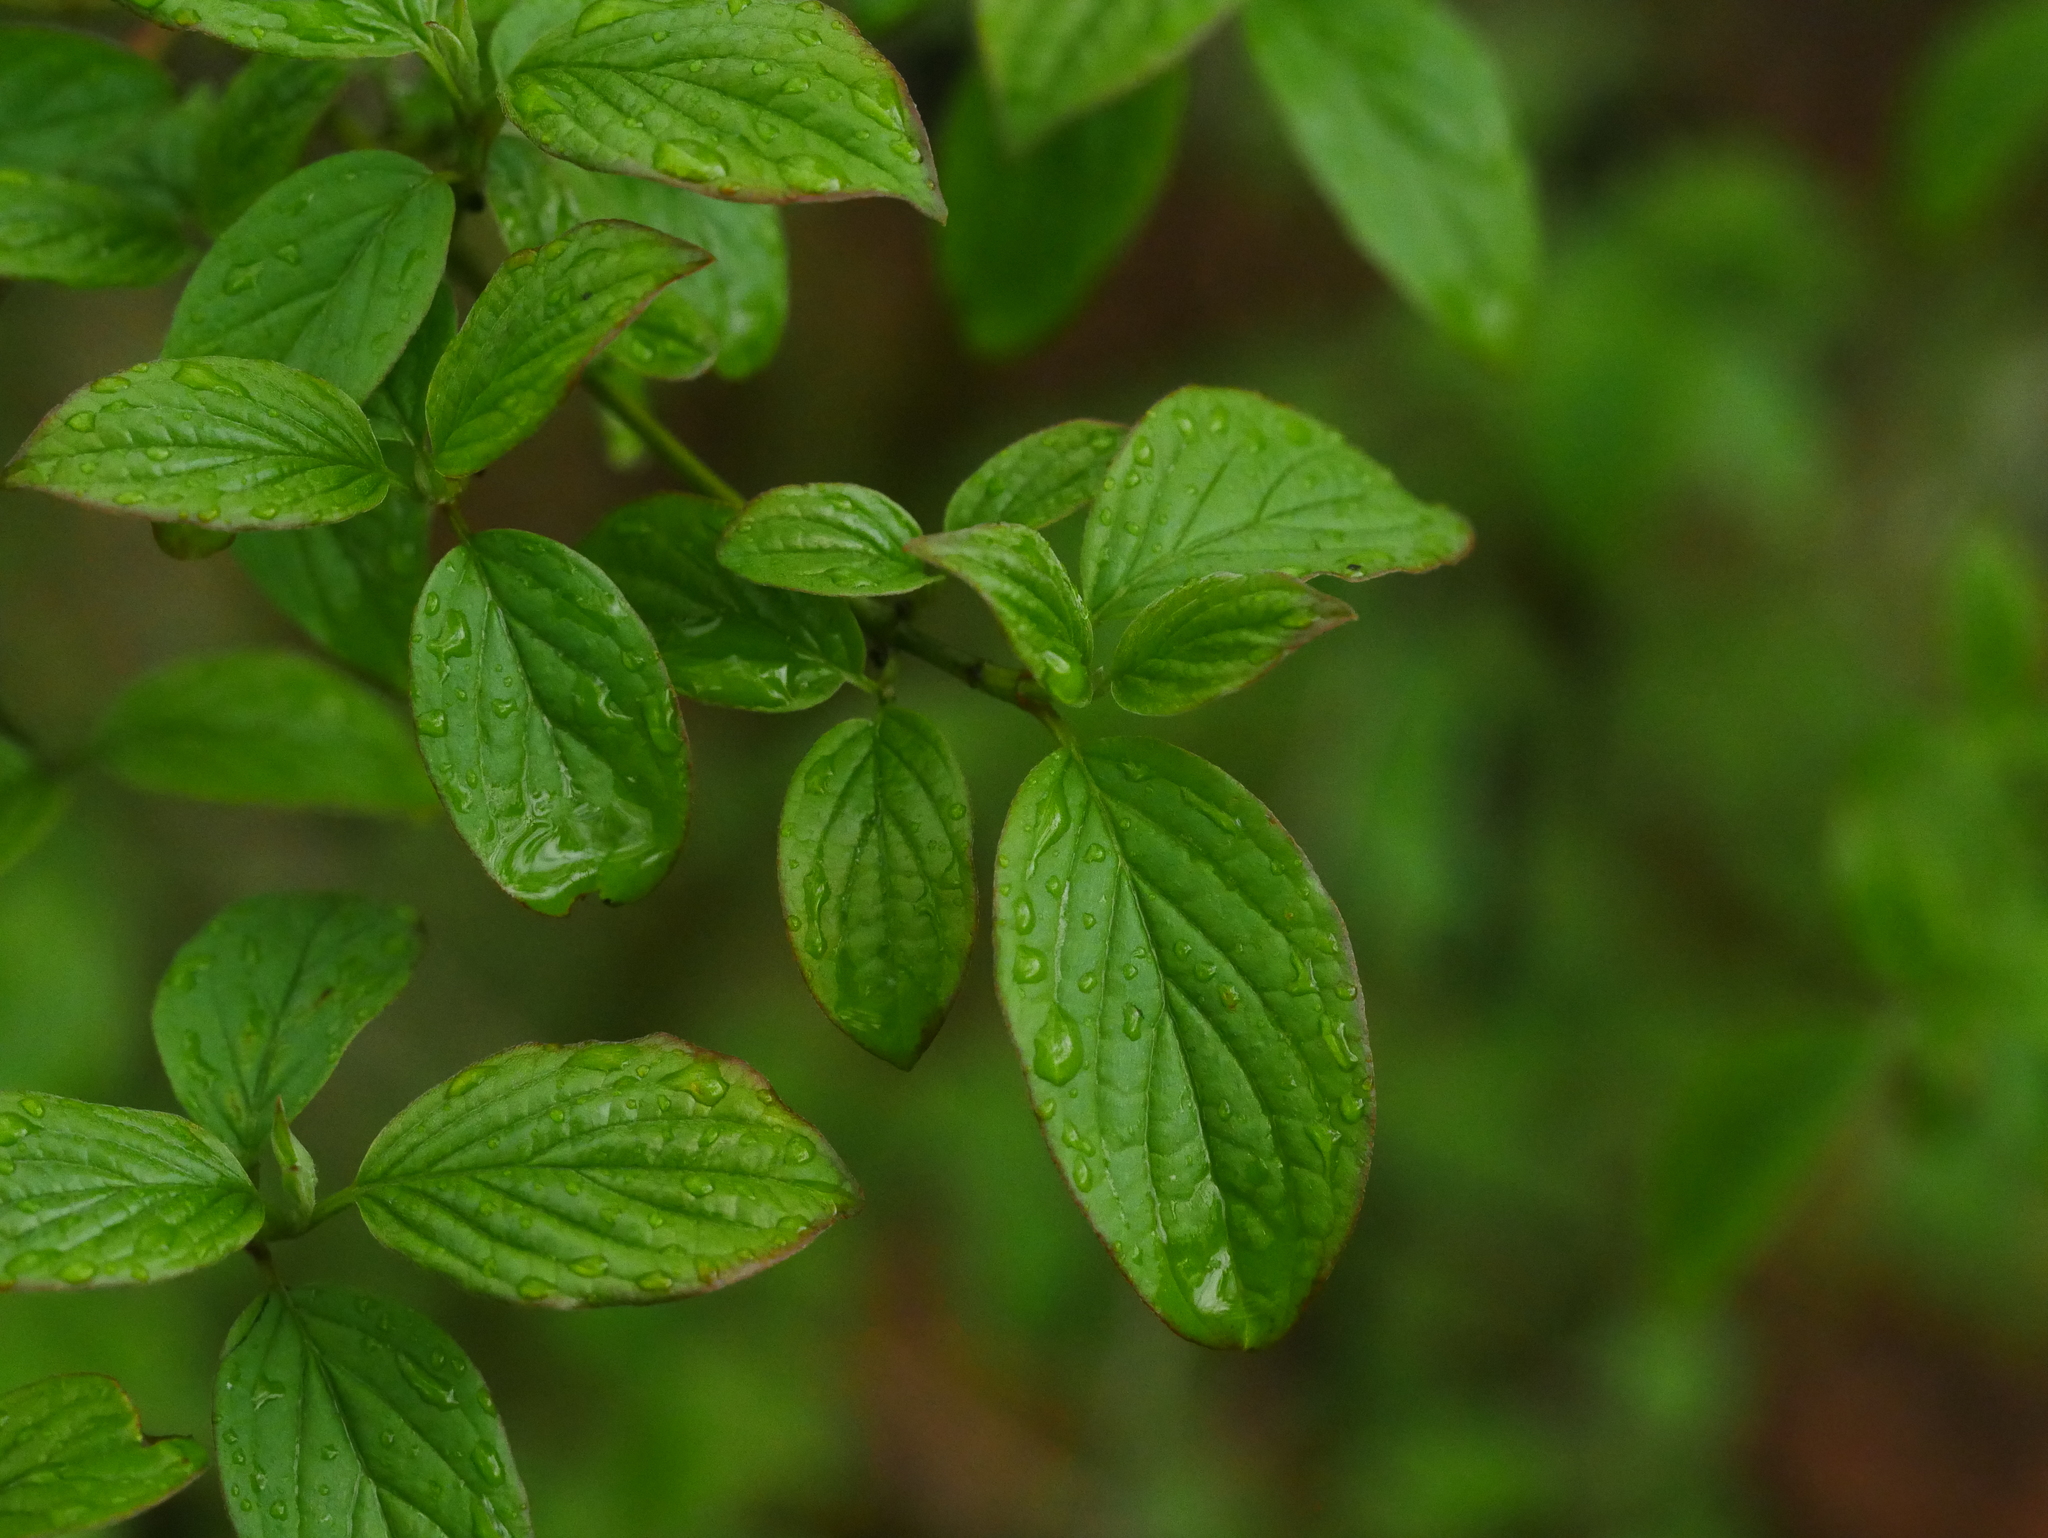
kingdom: Plantae
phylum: Tracheophyta
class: Magnoliopsida
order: Cornales
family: Cornaceae
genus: Cornus
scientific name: Cornus sanguinea
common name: Dogwood
